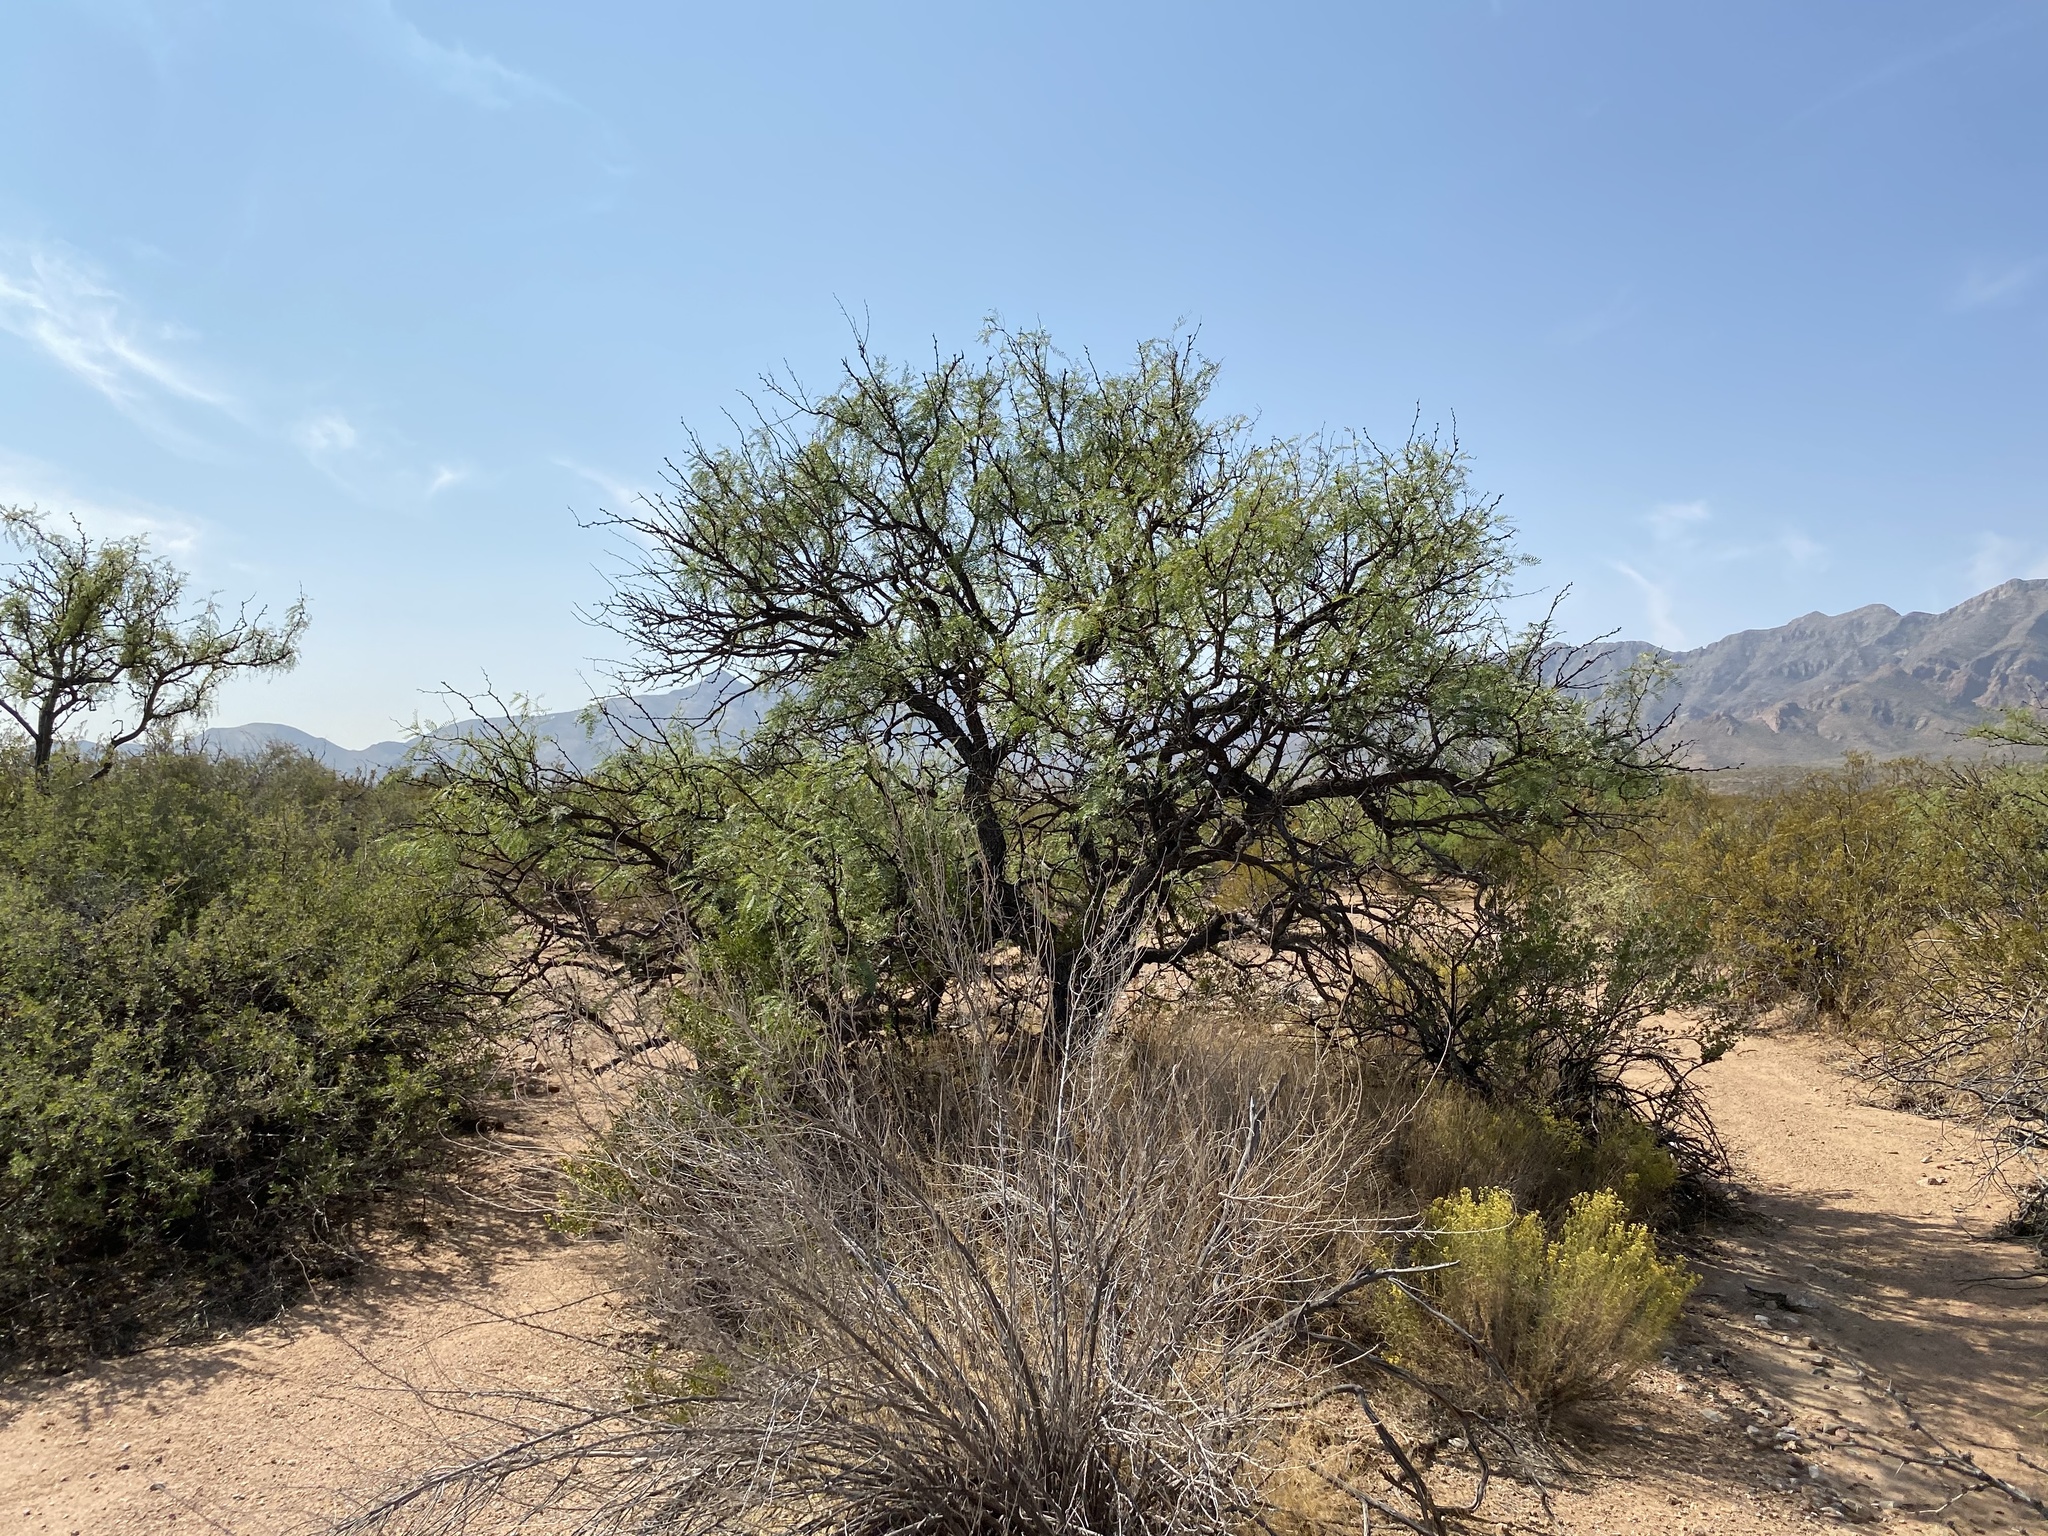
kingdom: Plantae
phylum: Tracheophyta
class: Magnoliopsida
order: Fabales
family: Fabaceae
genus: Prosopis
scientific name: Prosopis glandulosa
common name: Honey mesquite
